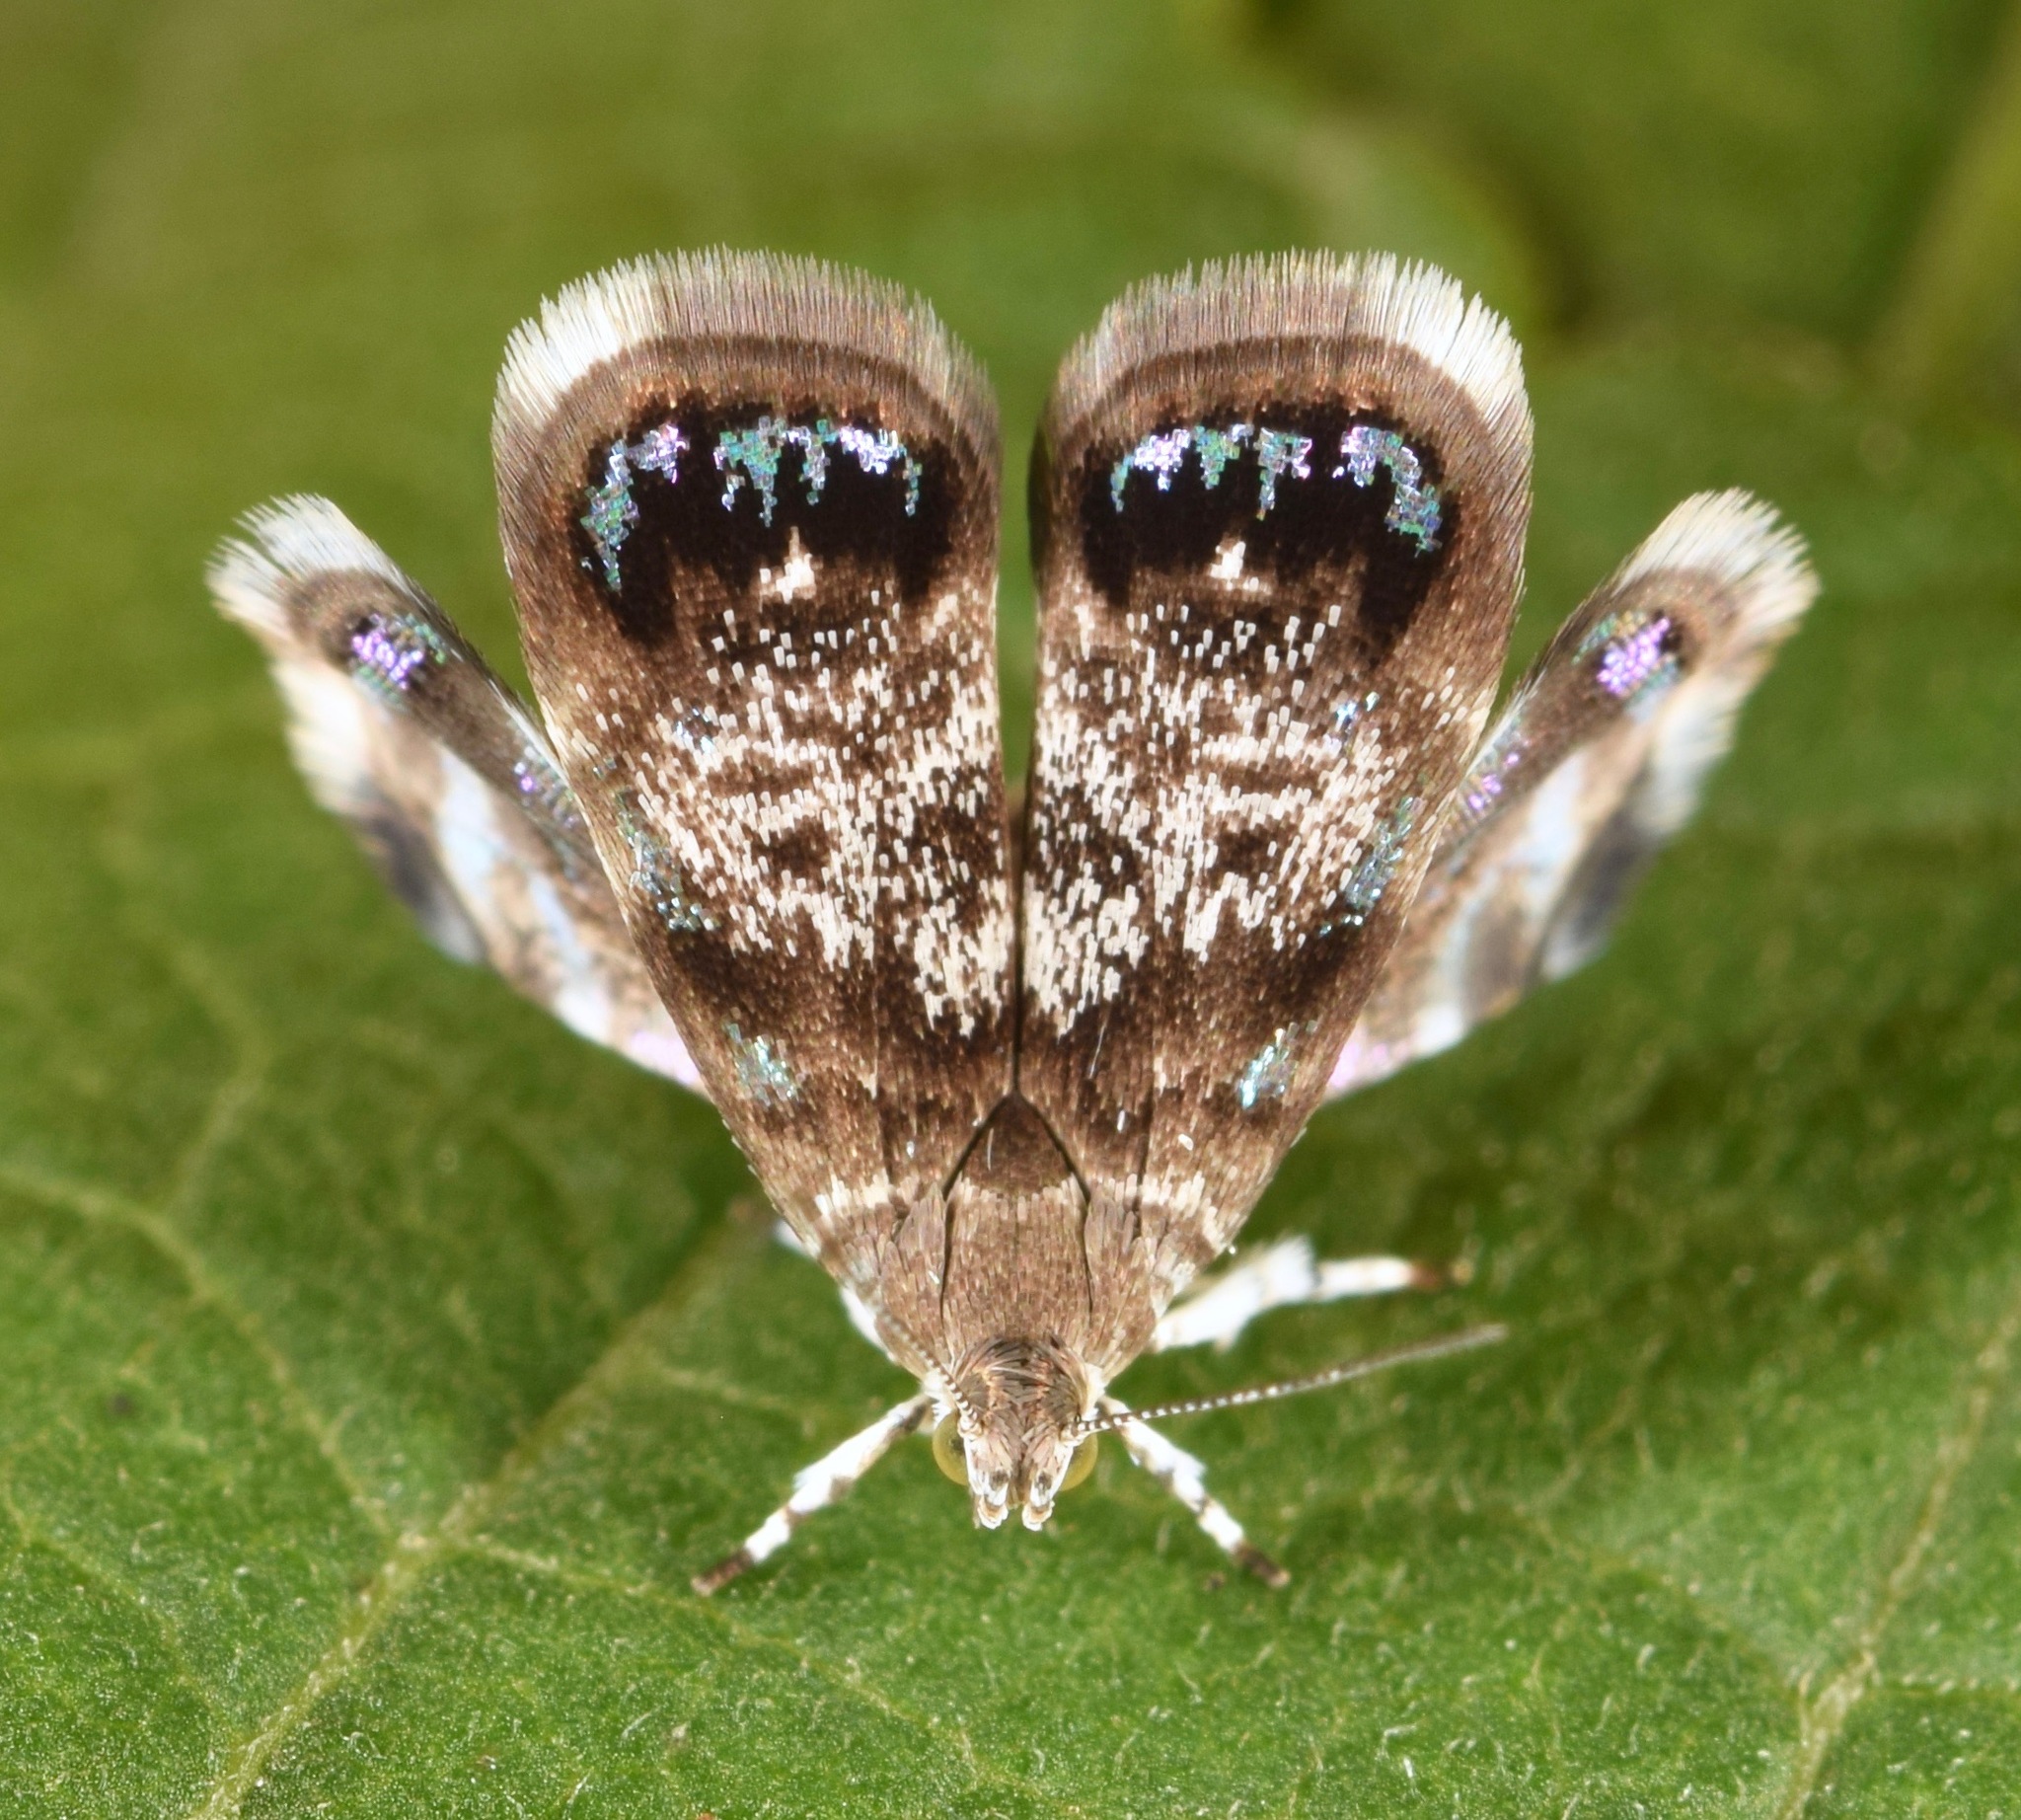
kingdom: Animalia
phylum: Arthropoda
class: Insecta
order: Lepidoptera
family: Choreutidae
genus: Brenthia
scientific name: Brenthia pavonacella
